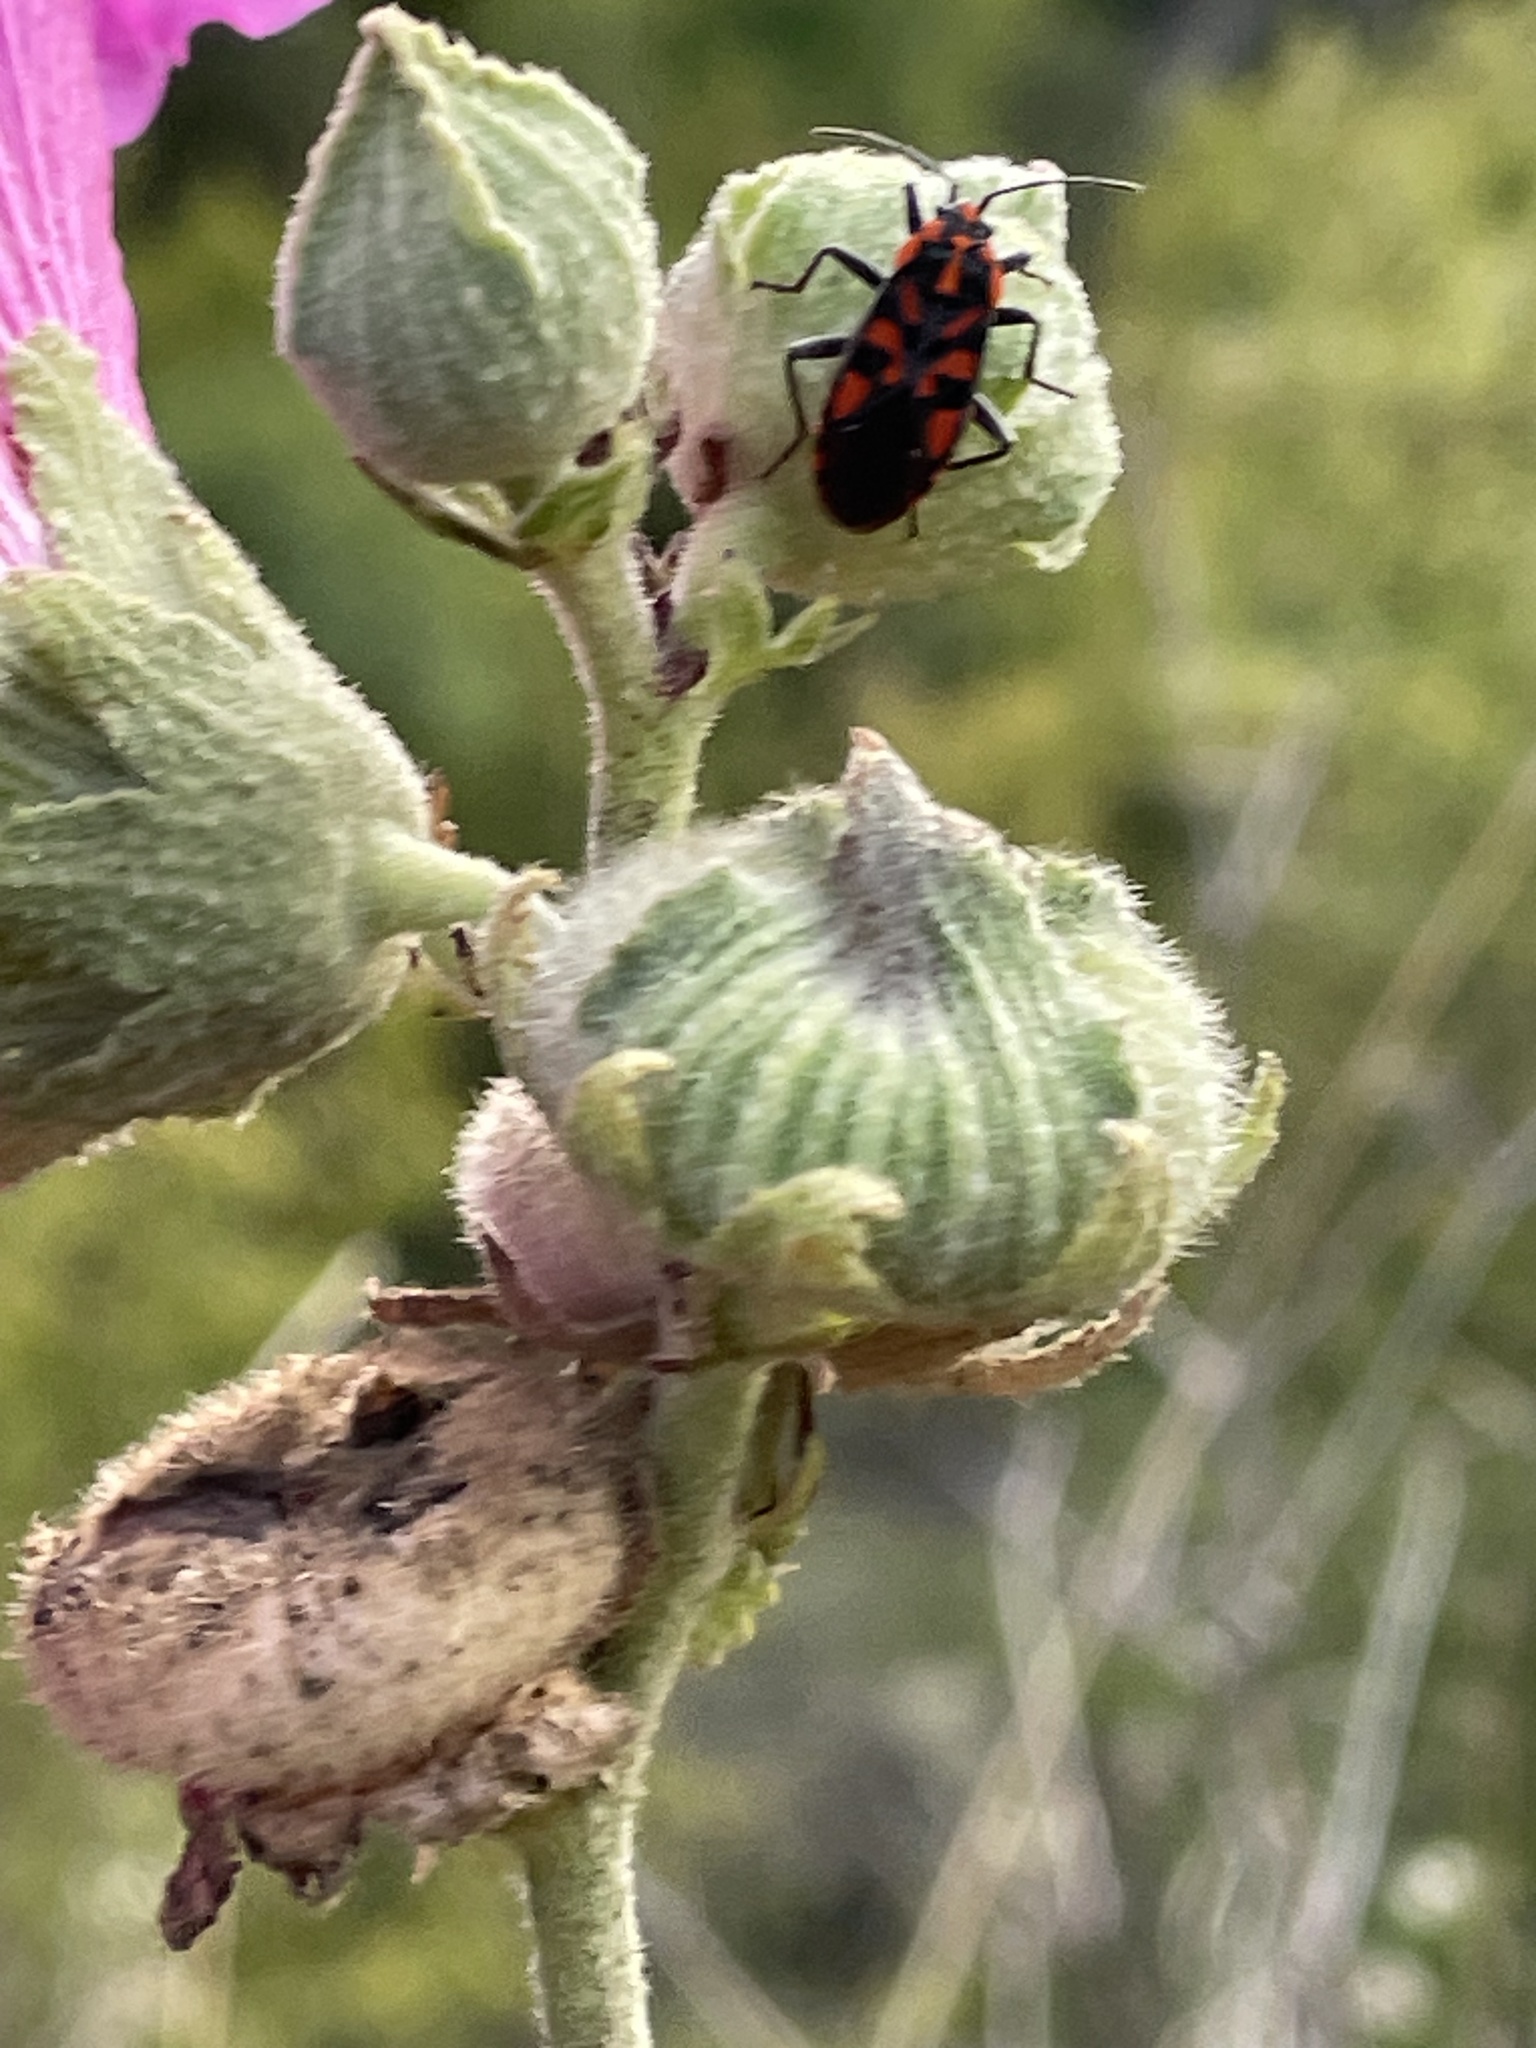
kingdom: Animalia
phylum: Arthropoda
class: Insecta
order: Hemiptera
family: Lygaeidae
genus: Spilostethus
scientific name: Spilostethus saxatilis
